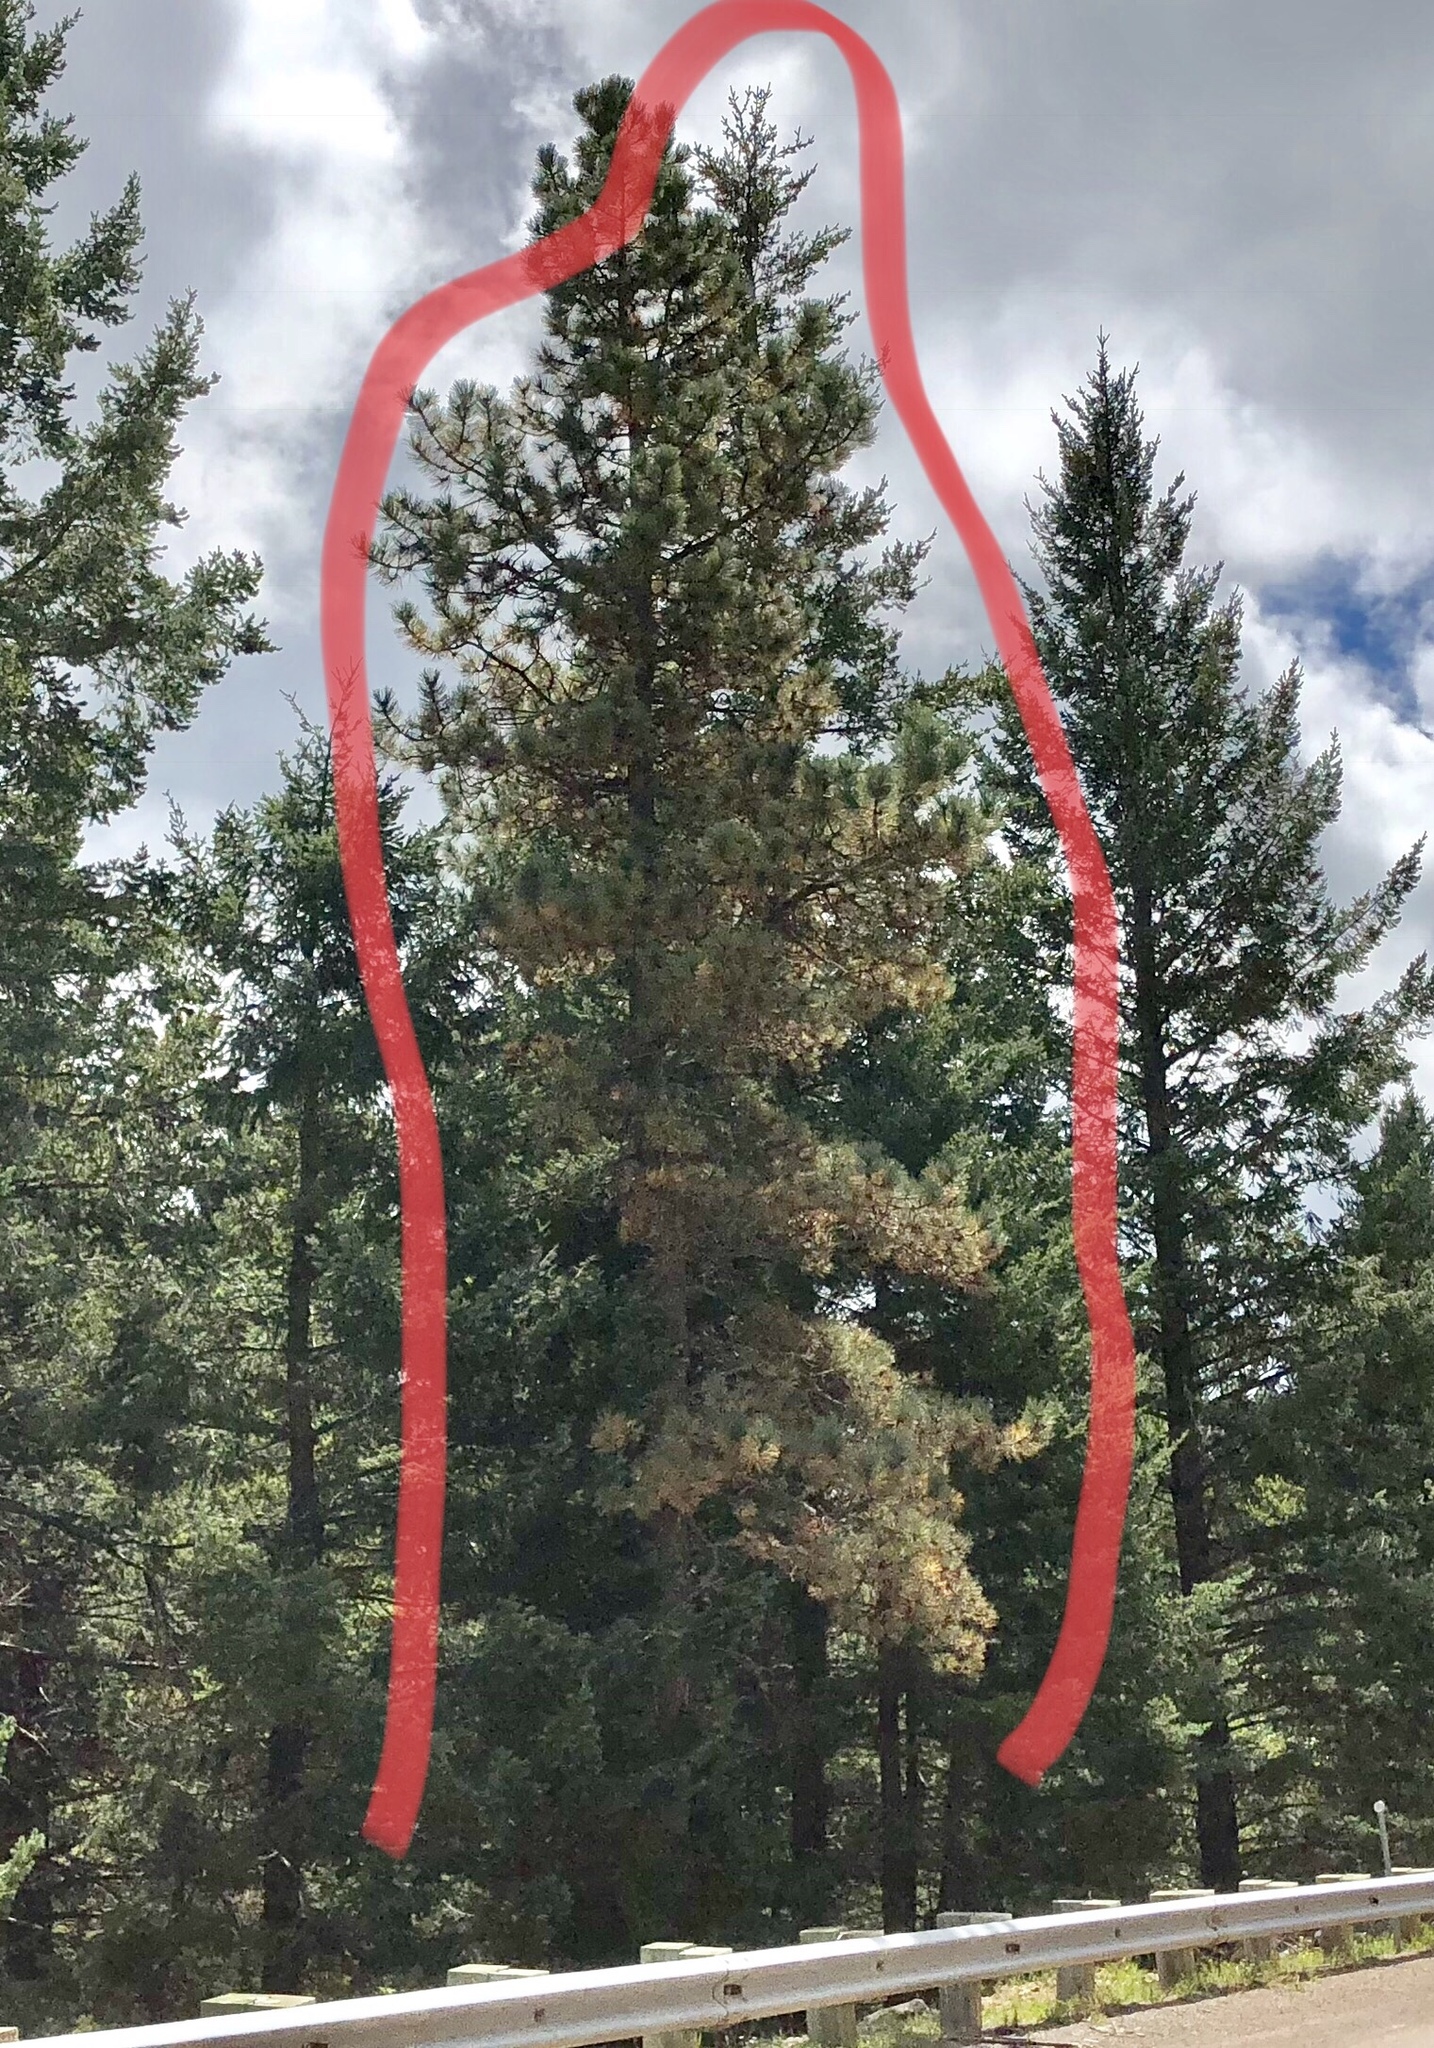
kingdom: Plantae
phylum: Tracheophyta
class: Pinopsida
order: Pinales
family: Pinaceae
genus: Pinus
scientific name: Pinus ponderosa
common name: Western yellow-pine
